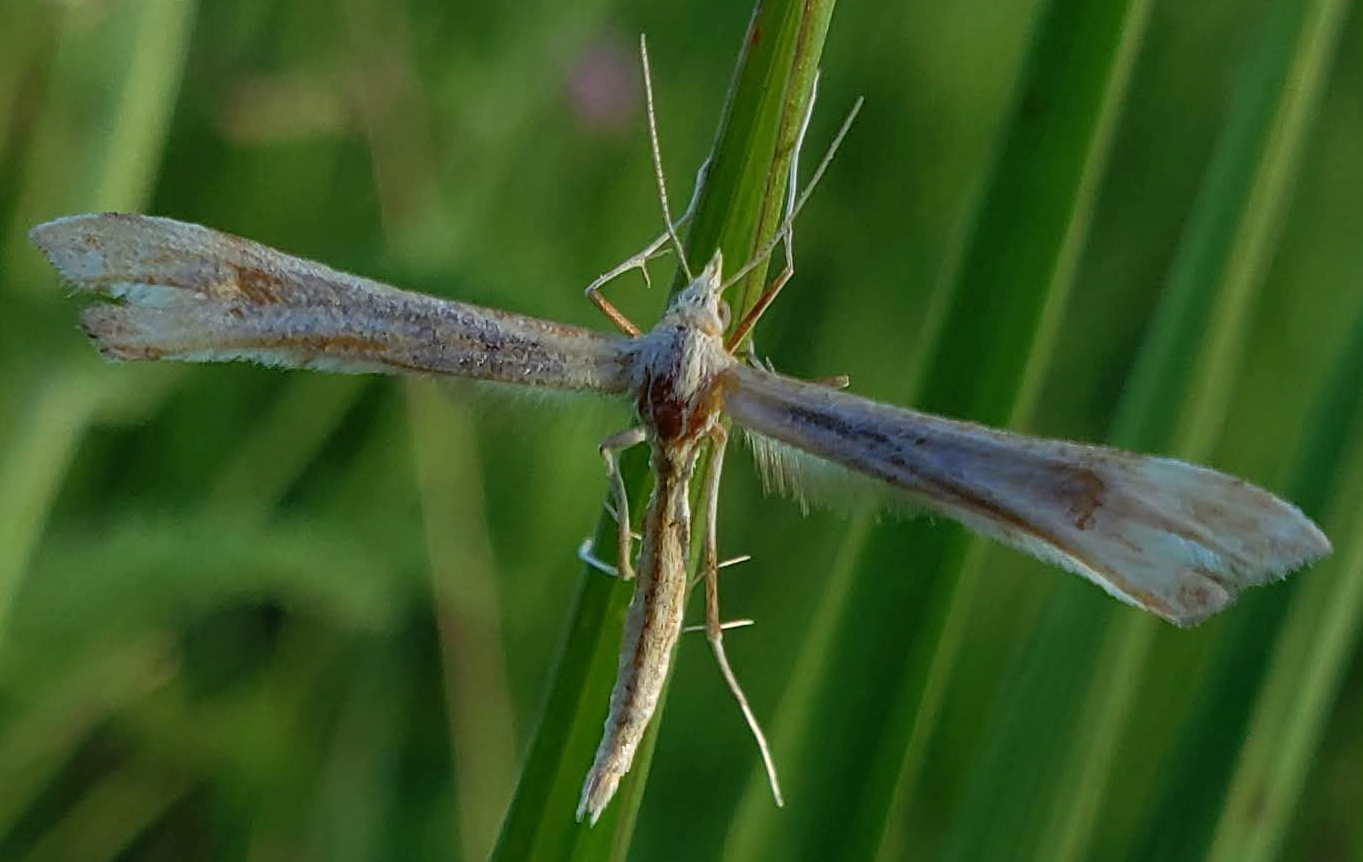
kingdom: Animalia
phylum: Arthropoda
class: Insecta
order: Lepidoptera
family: Pterophoridae
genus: Gillmeria
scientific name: Gillmeria pallidactyla
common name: Yarrow plume
